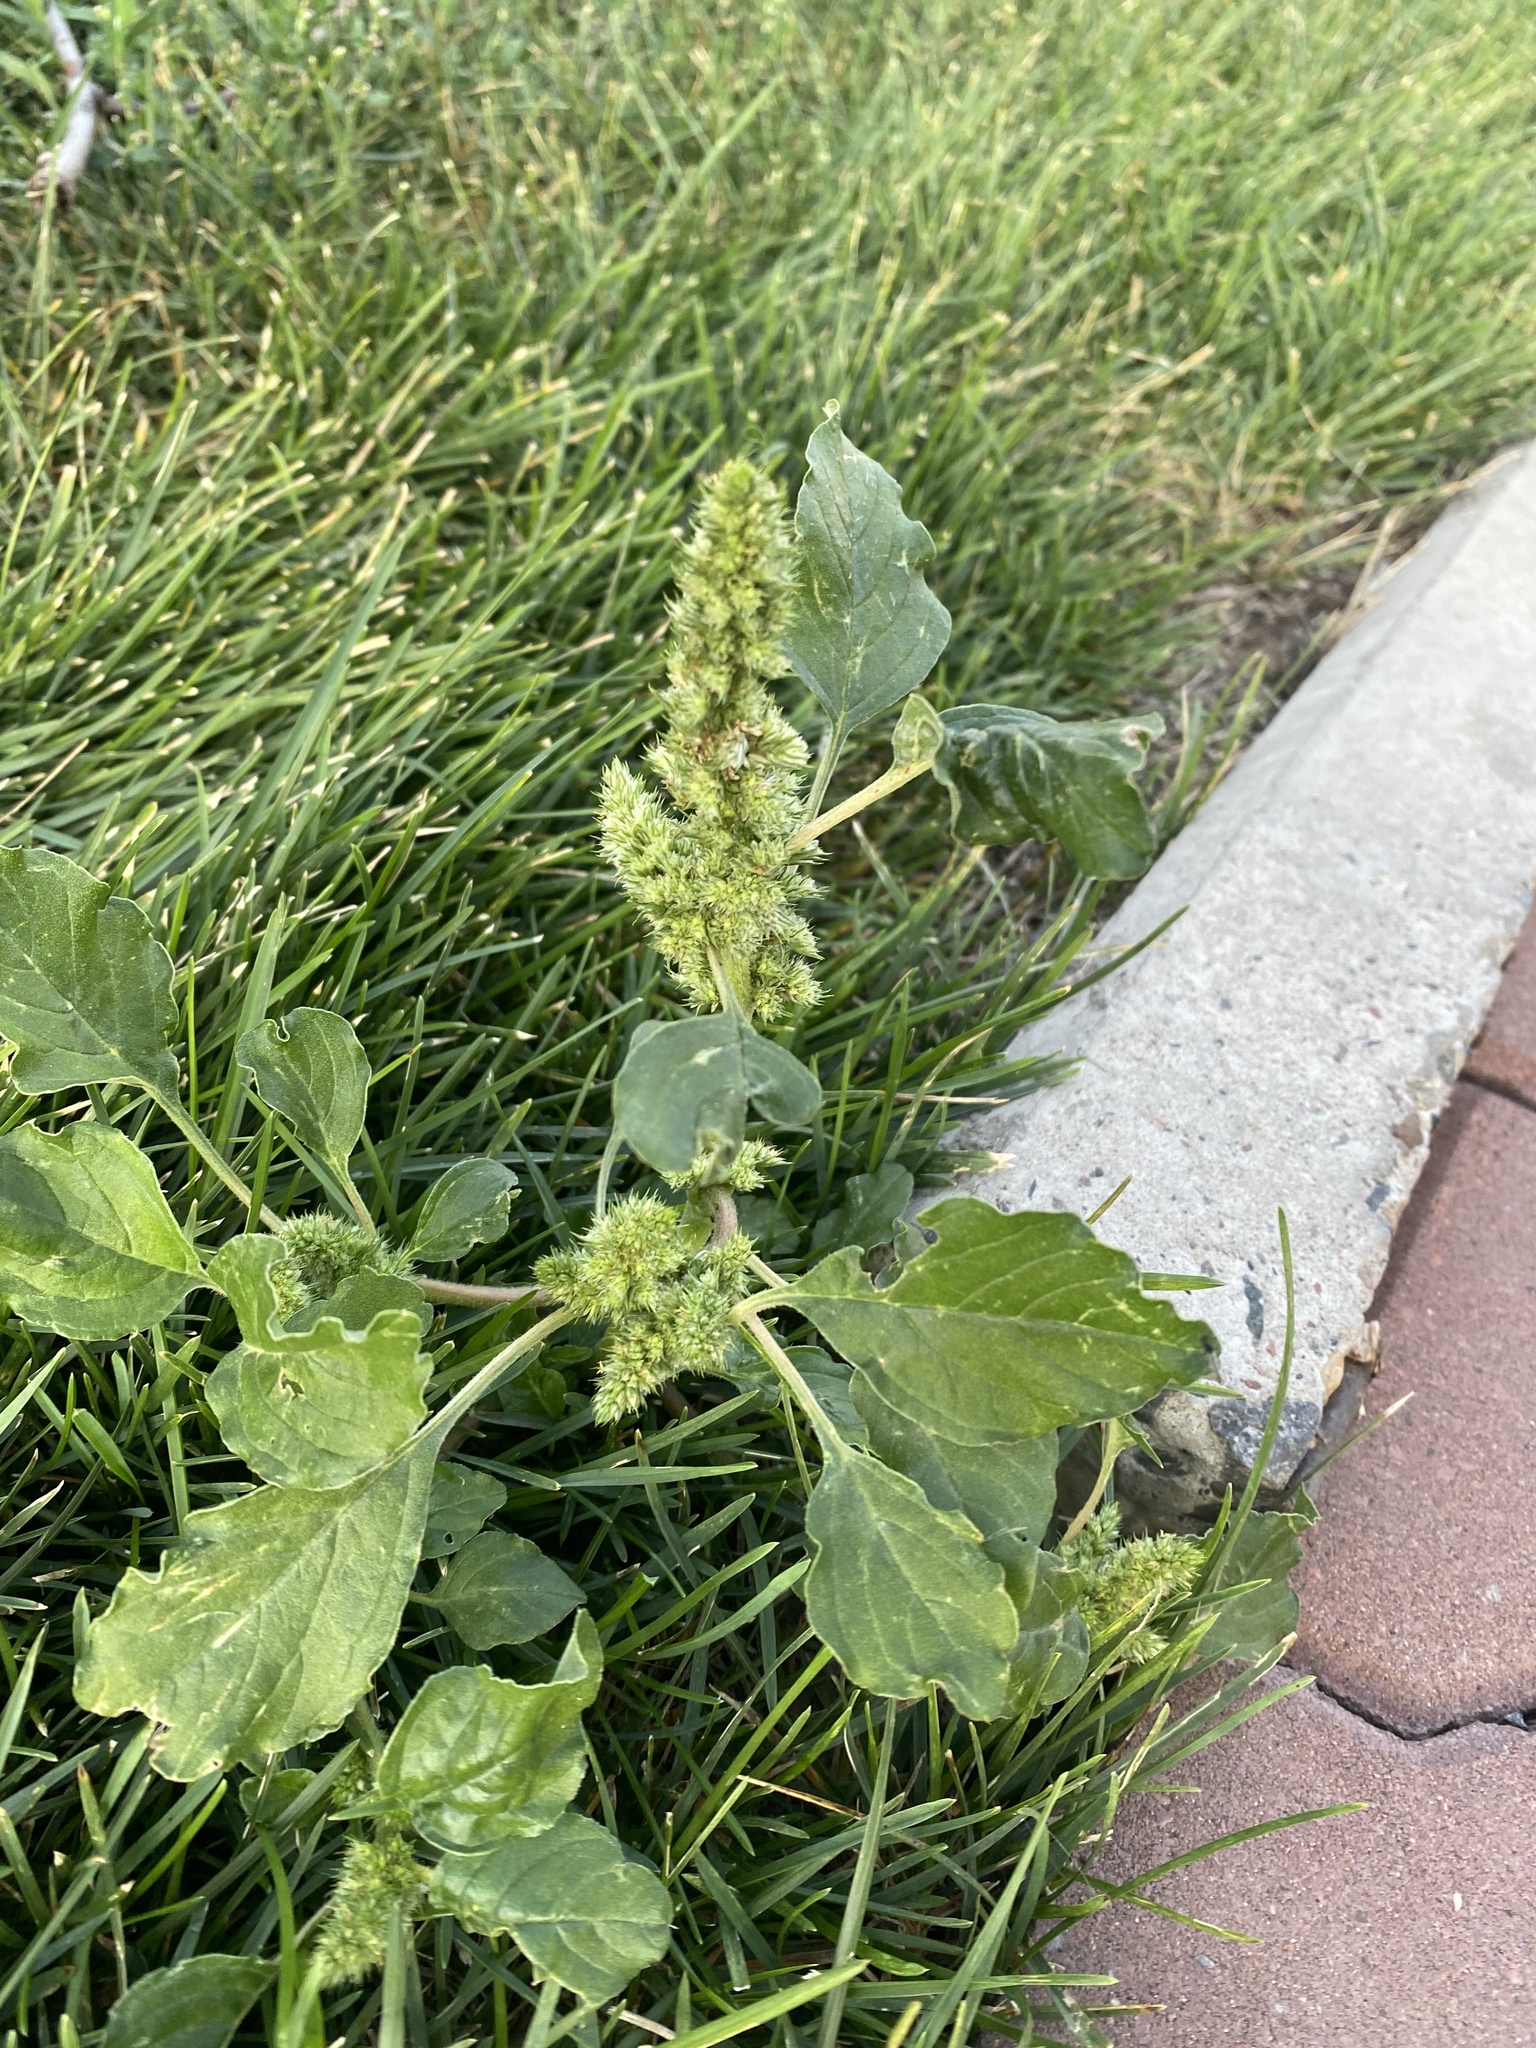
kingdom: Plantae
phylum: Tracheophyta
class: Magnoliopsida
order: Caryophyllales
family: Amaranthaceae
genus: Amaranthus
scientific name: Amaranthus retroflexus
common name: Redroot amaranth
